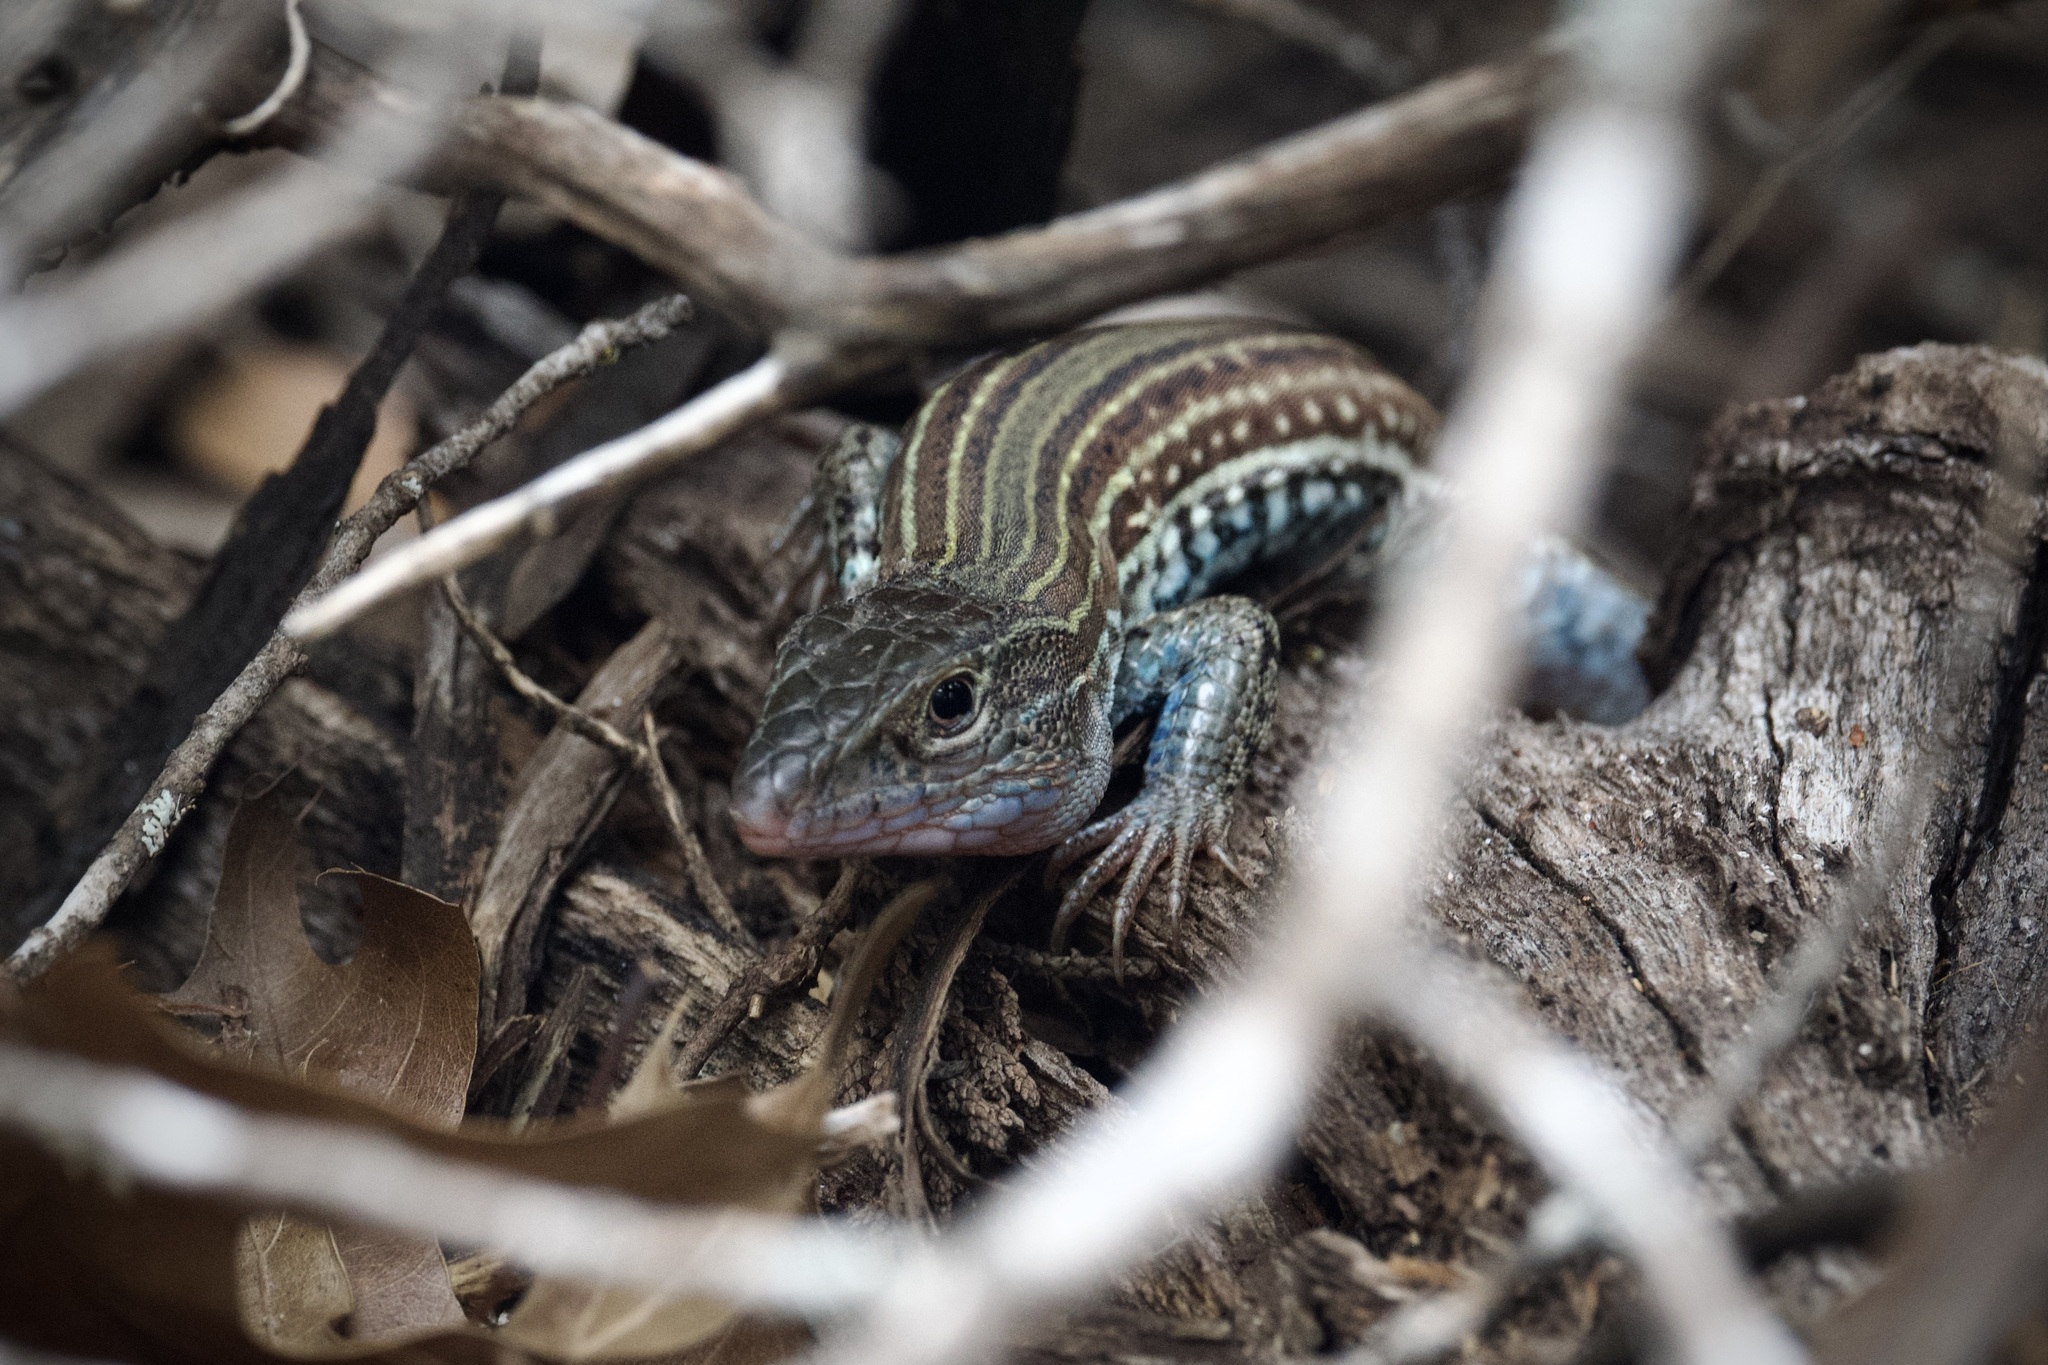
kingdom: Animalia
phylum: Chordata
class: Squamata
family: Teiidae
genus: Aspidoscelis
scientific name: Aspidoscelis gularis
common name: Eastern spotted whiptail
